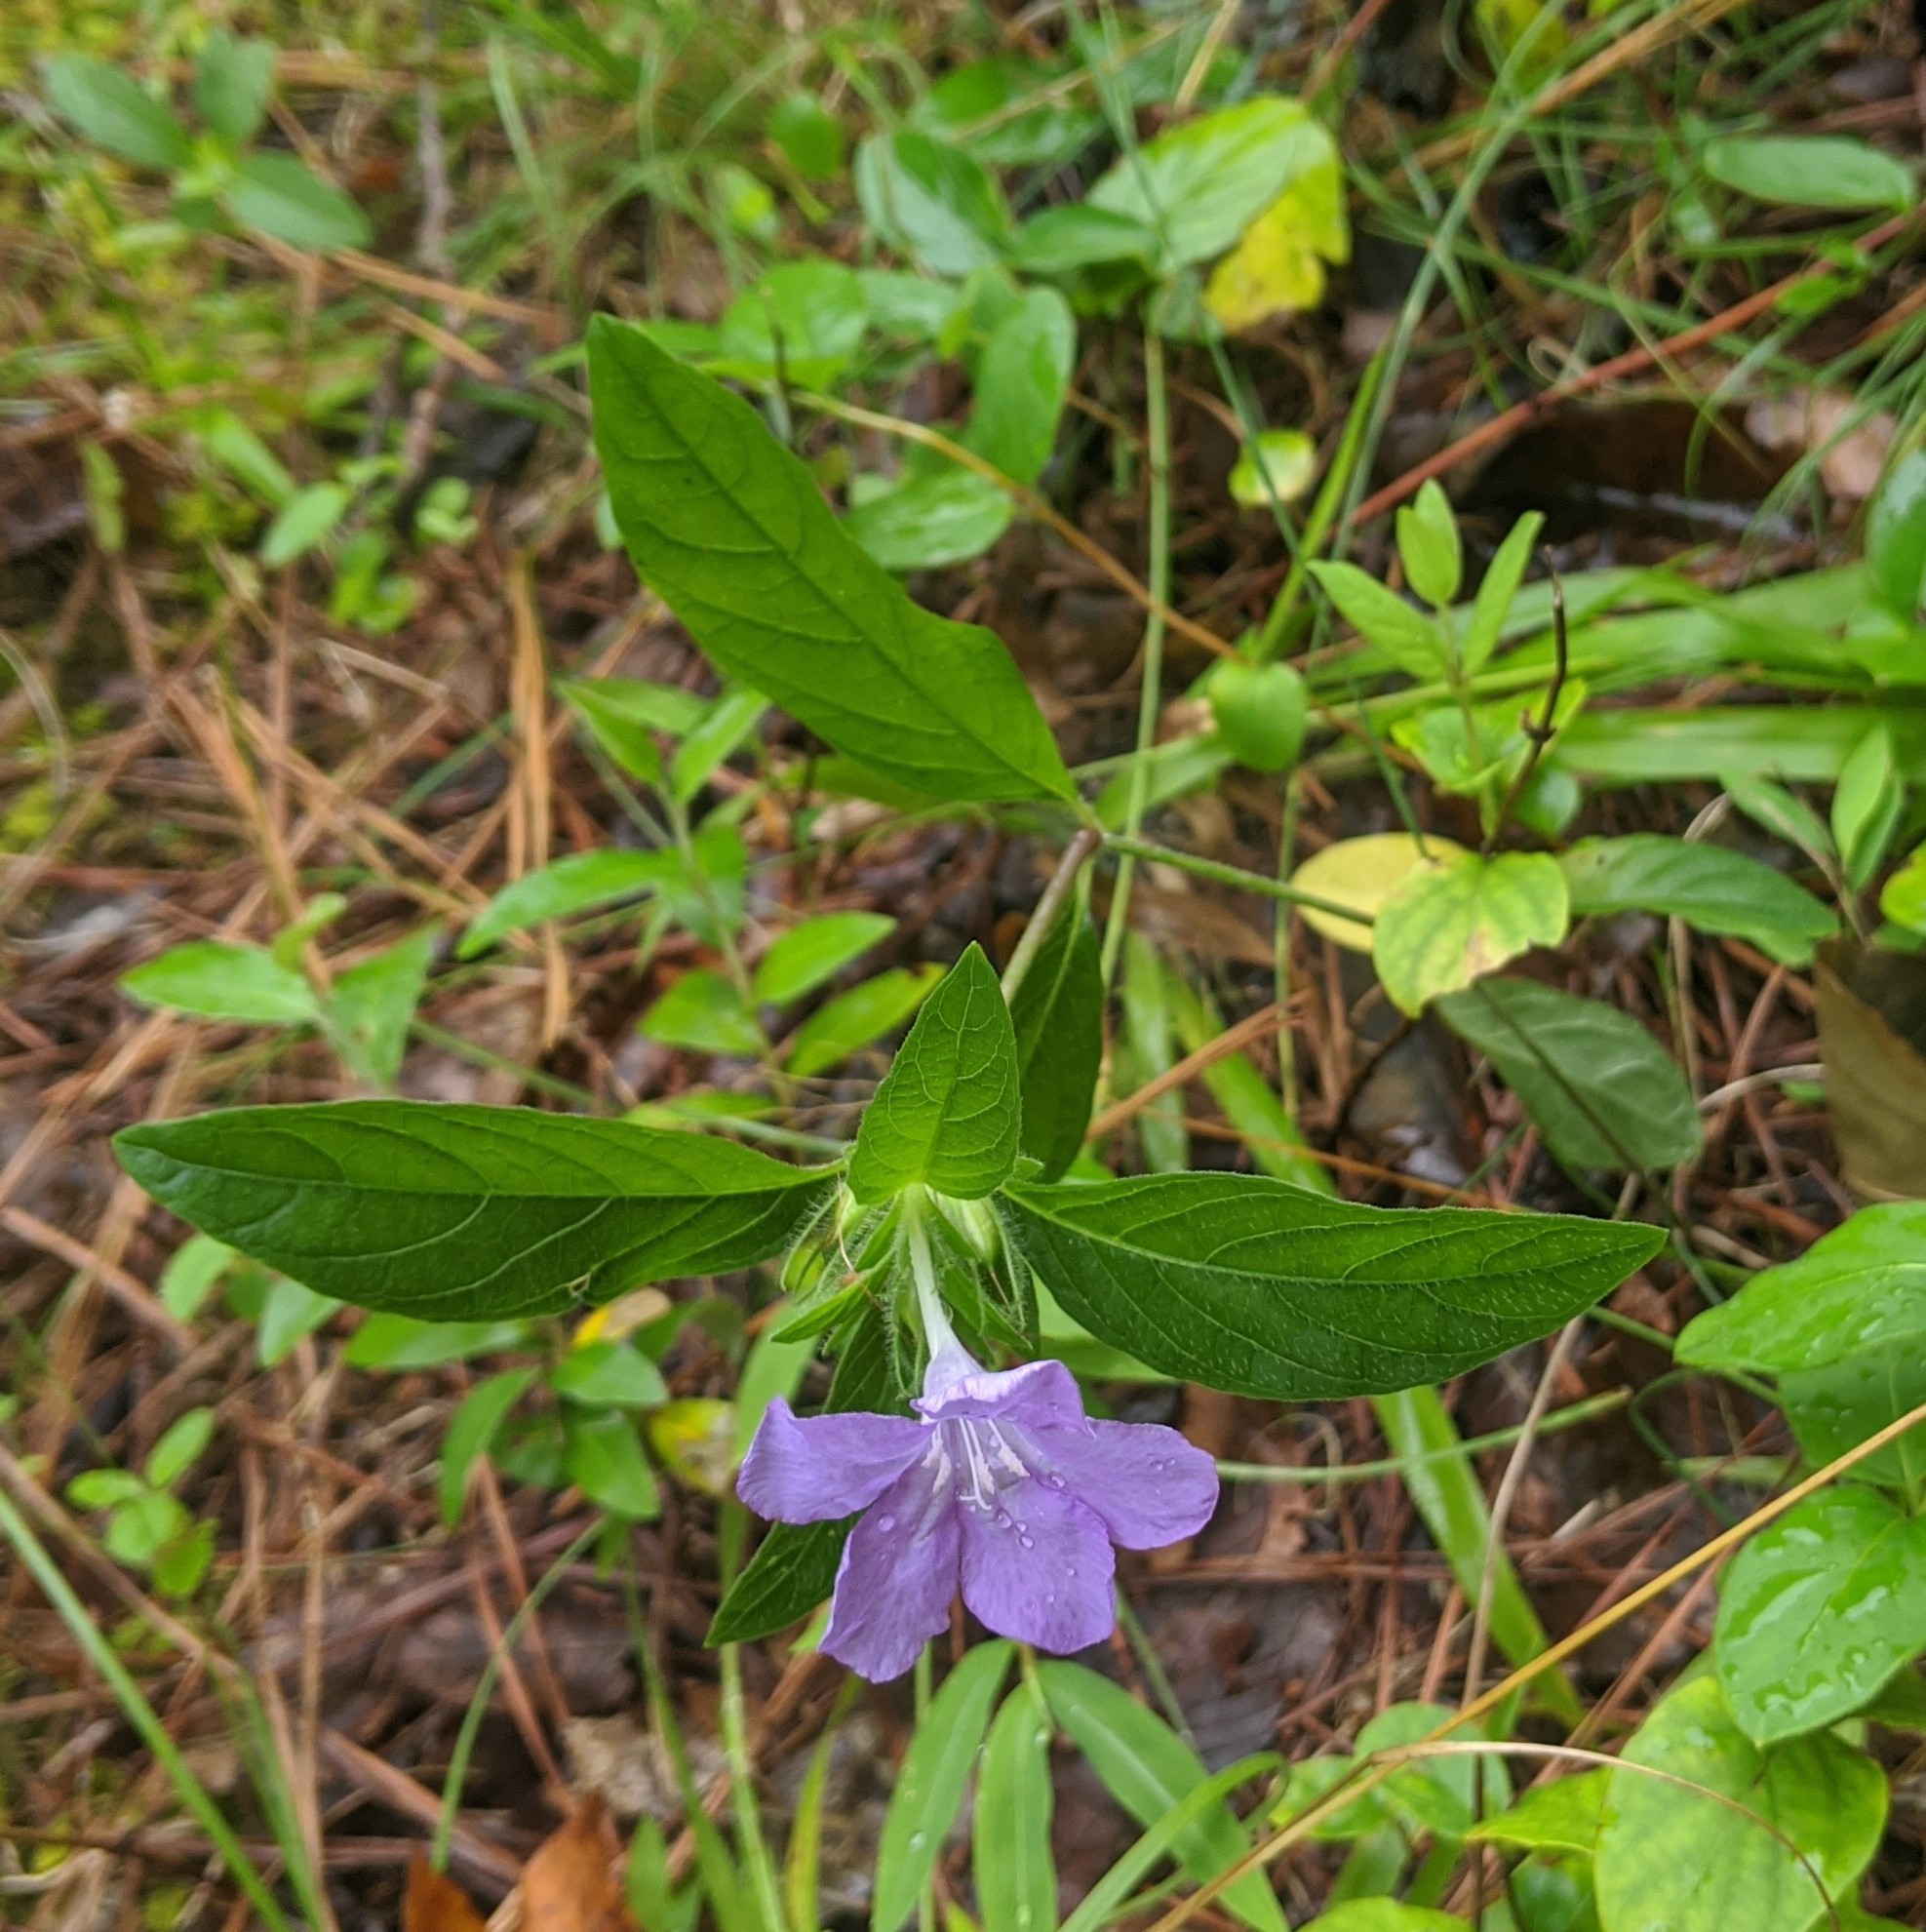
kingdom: Plantae
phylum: Tracheophyta
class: Magnoliopsida
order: Lamiales
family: Acanthaceae
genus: Ruellia
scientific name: Ruellia caroliniensis
